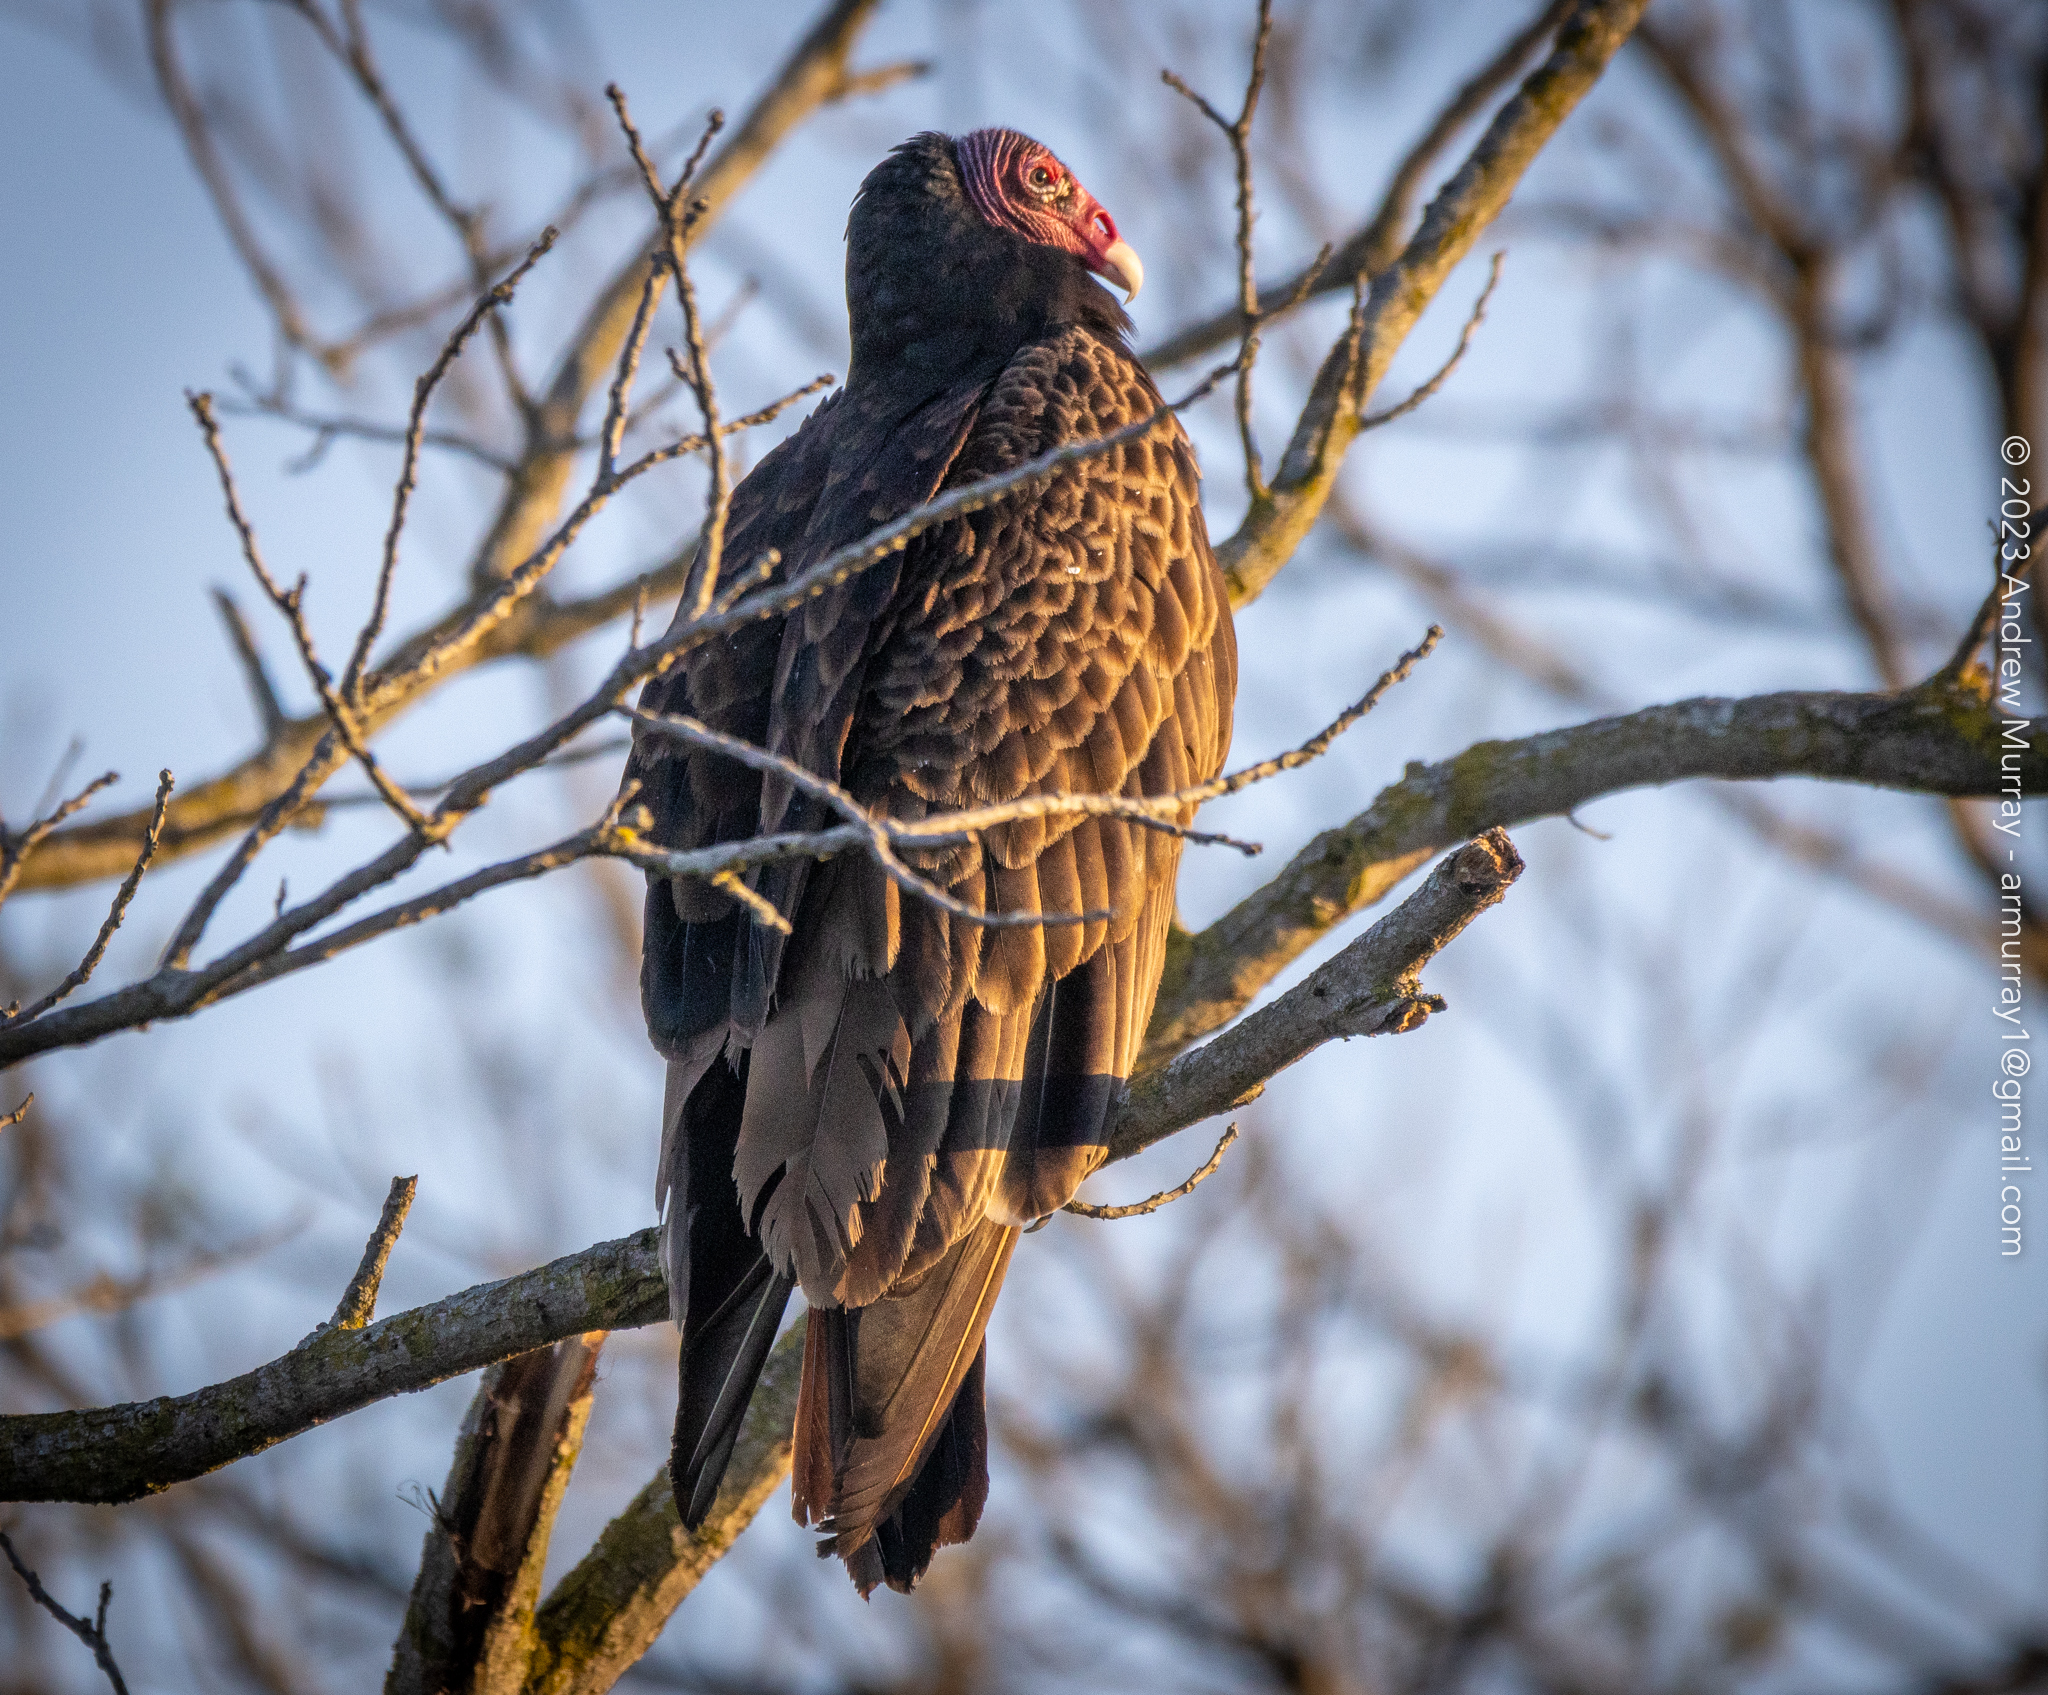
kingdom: Animalia
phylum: Chordata
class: Aves
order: Accipitriformes
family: Cathartidae
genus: Cathartes
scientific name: Cathartes aura
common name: Turkey vulture
